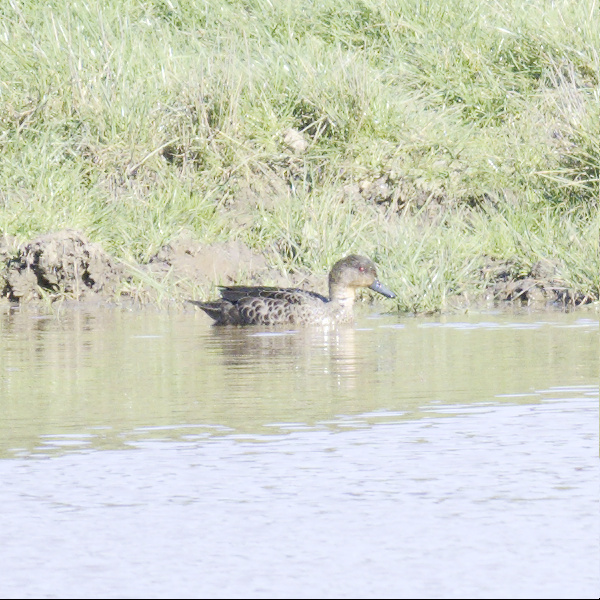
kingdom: Animalia
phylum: Chordata
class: Aves
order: Anseriformes
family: Anatidae
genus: Anas
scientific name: Anas castanea
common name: Chestnut teal
